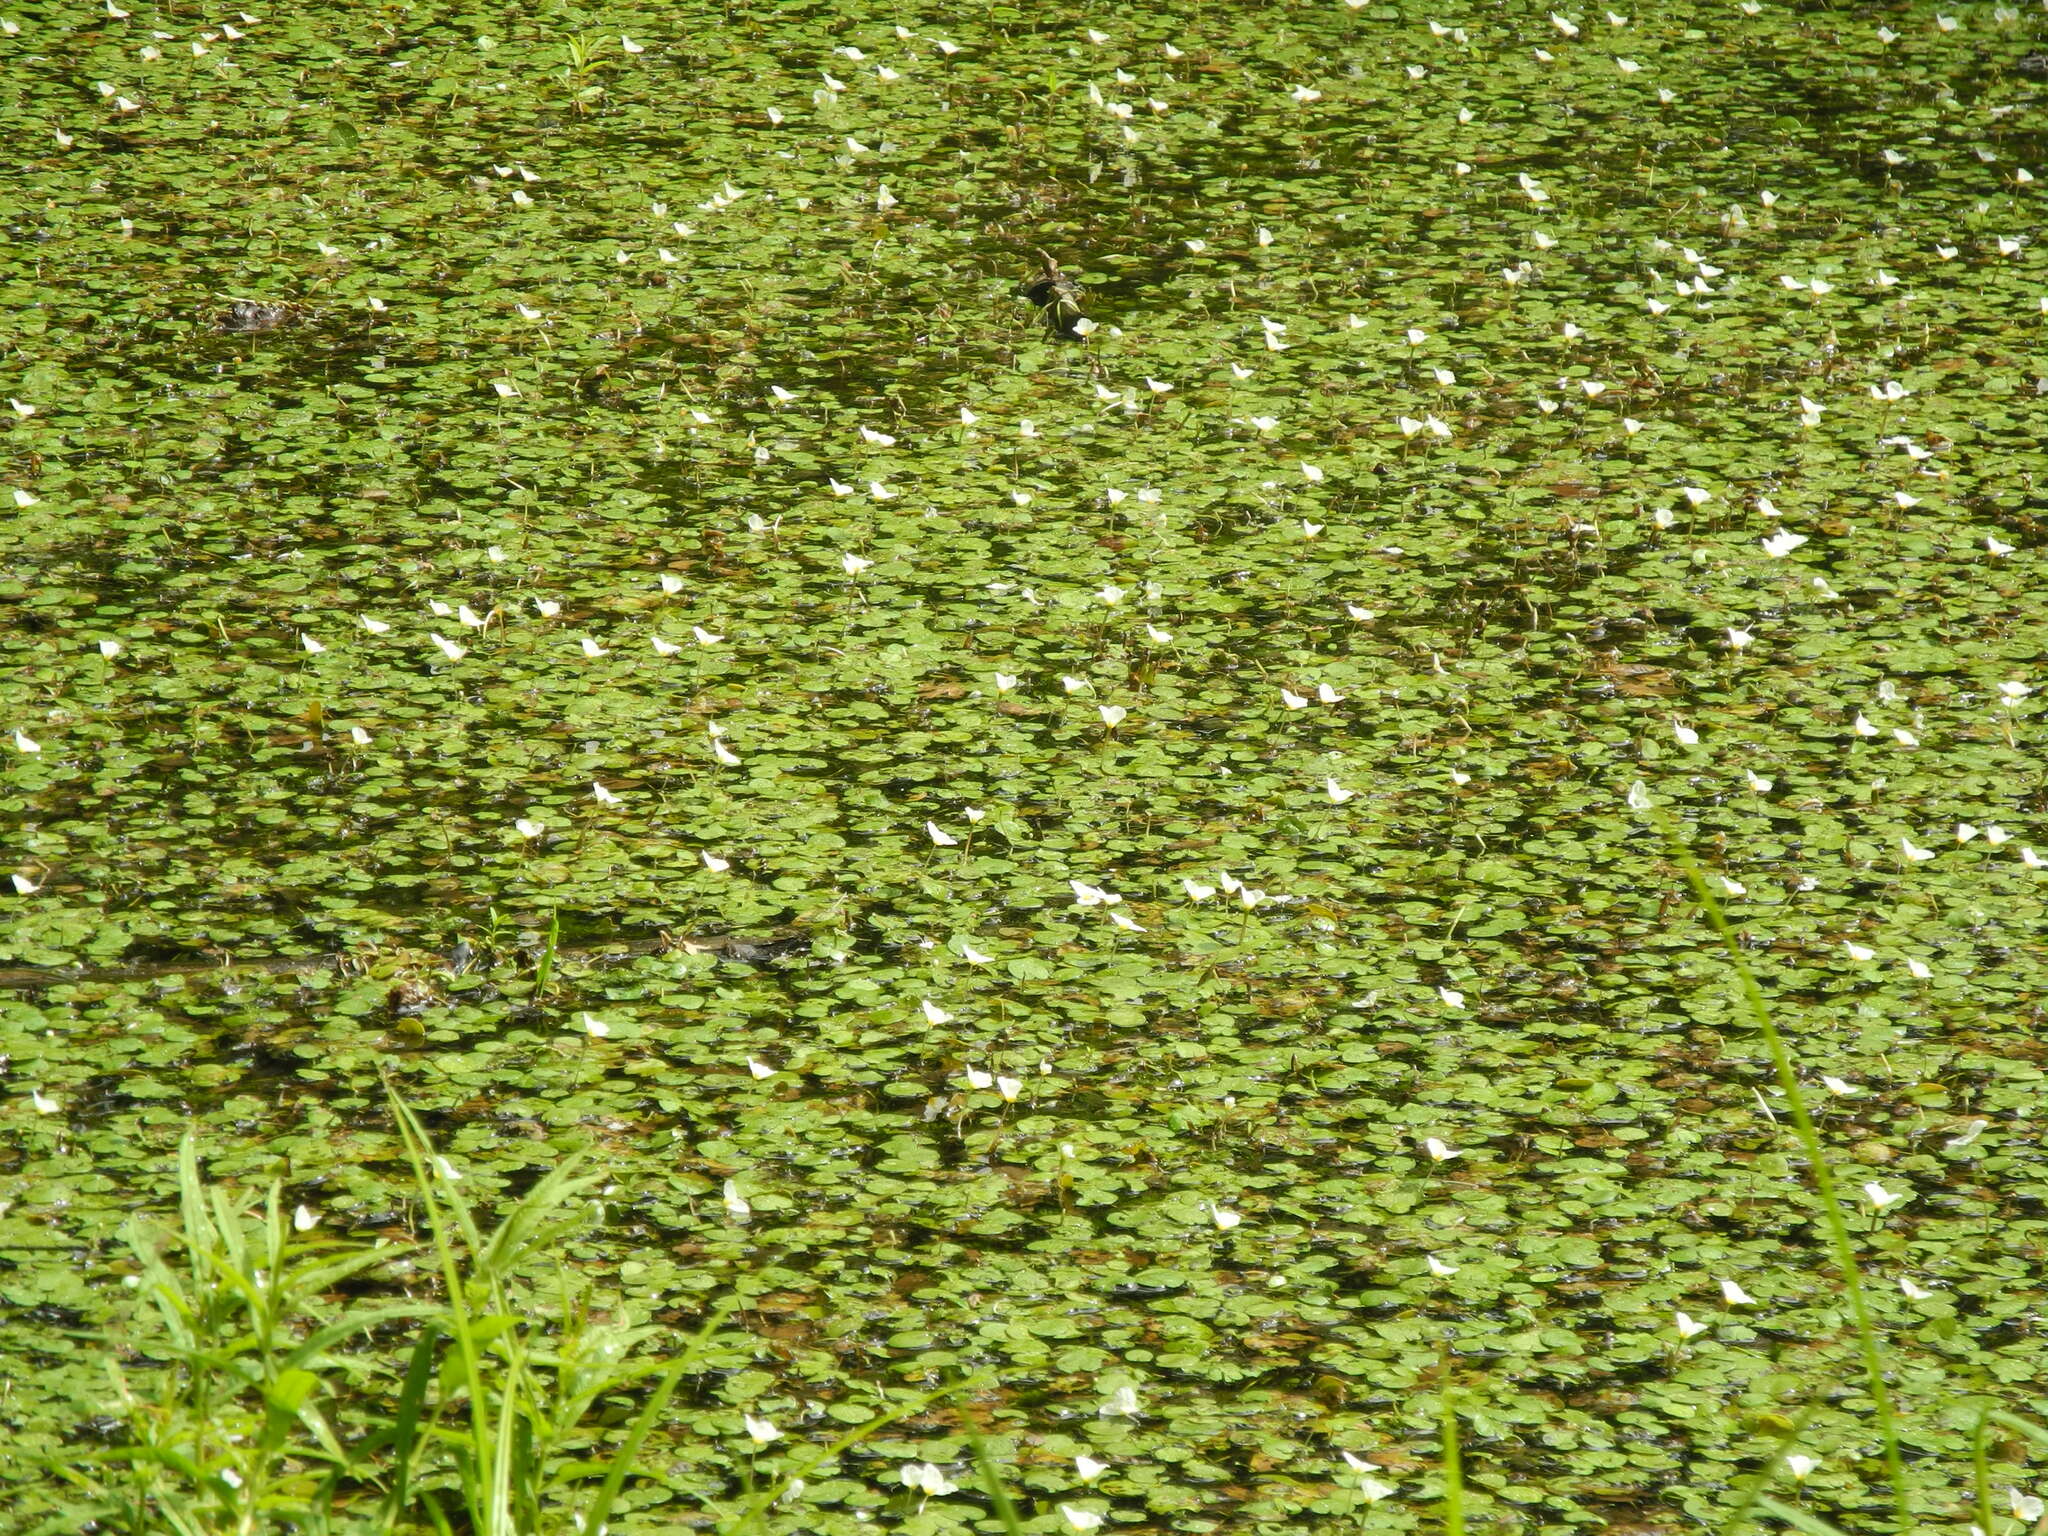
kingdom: Plantae
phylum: Tracheophyta
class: Liliopsida
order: Alismatales
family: Hydrocharitaceae
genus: Hydrocharis
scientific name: Hydrocharis morsus-ranae
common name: Frogbit
